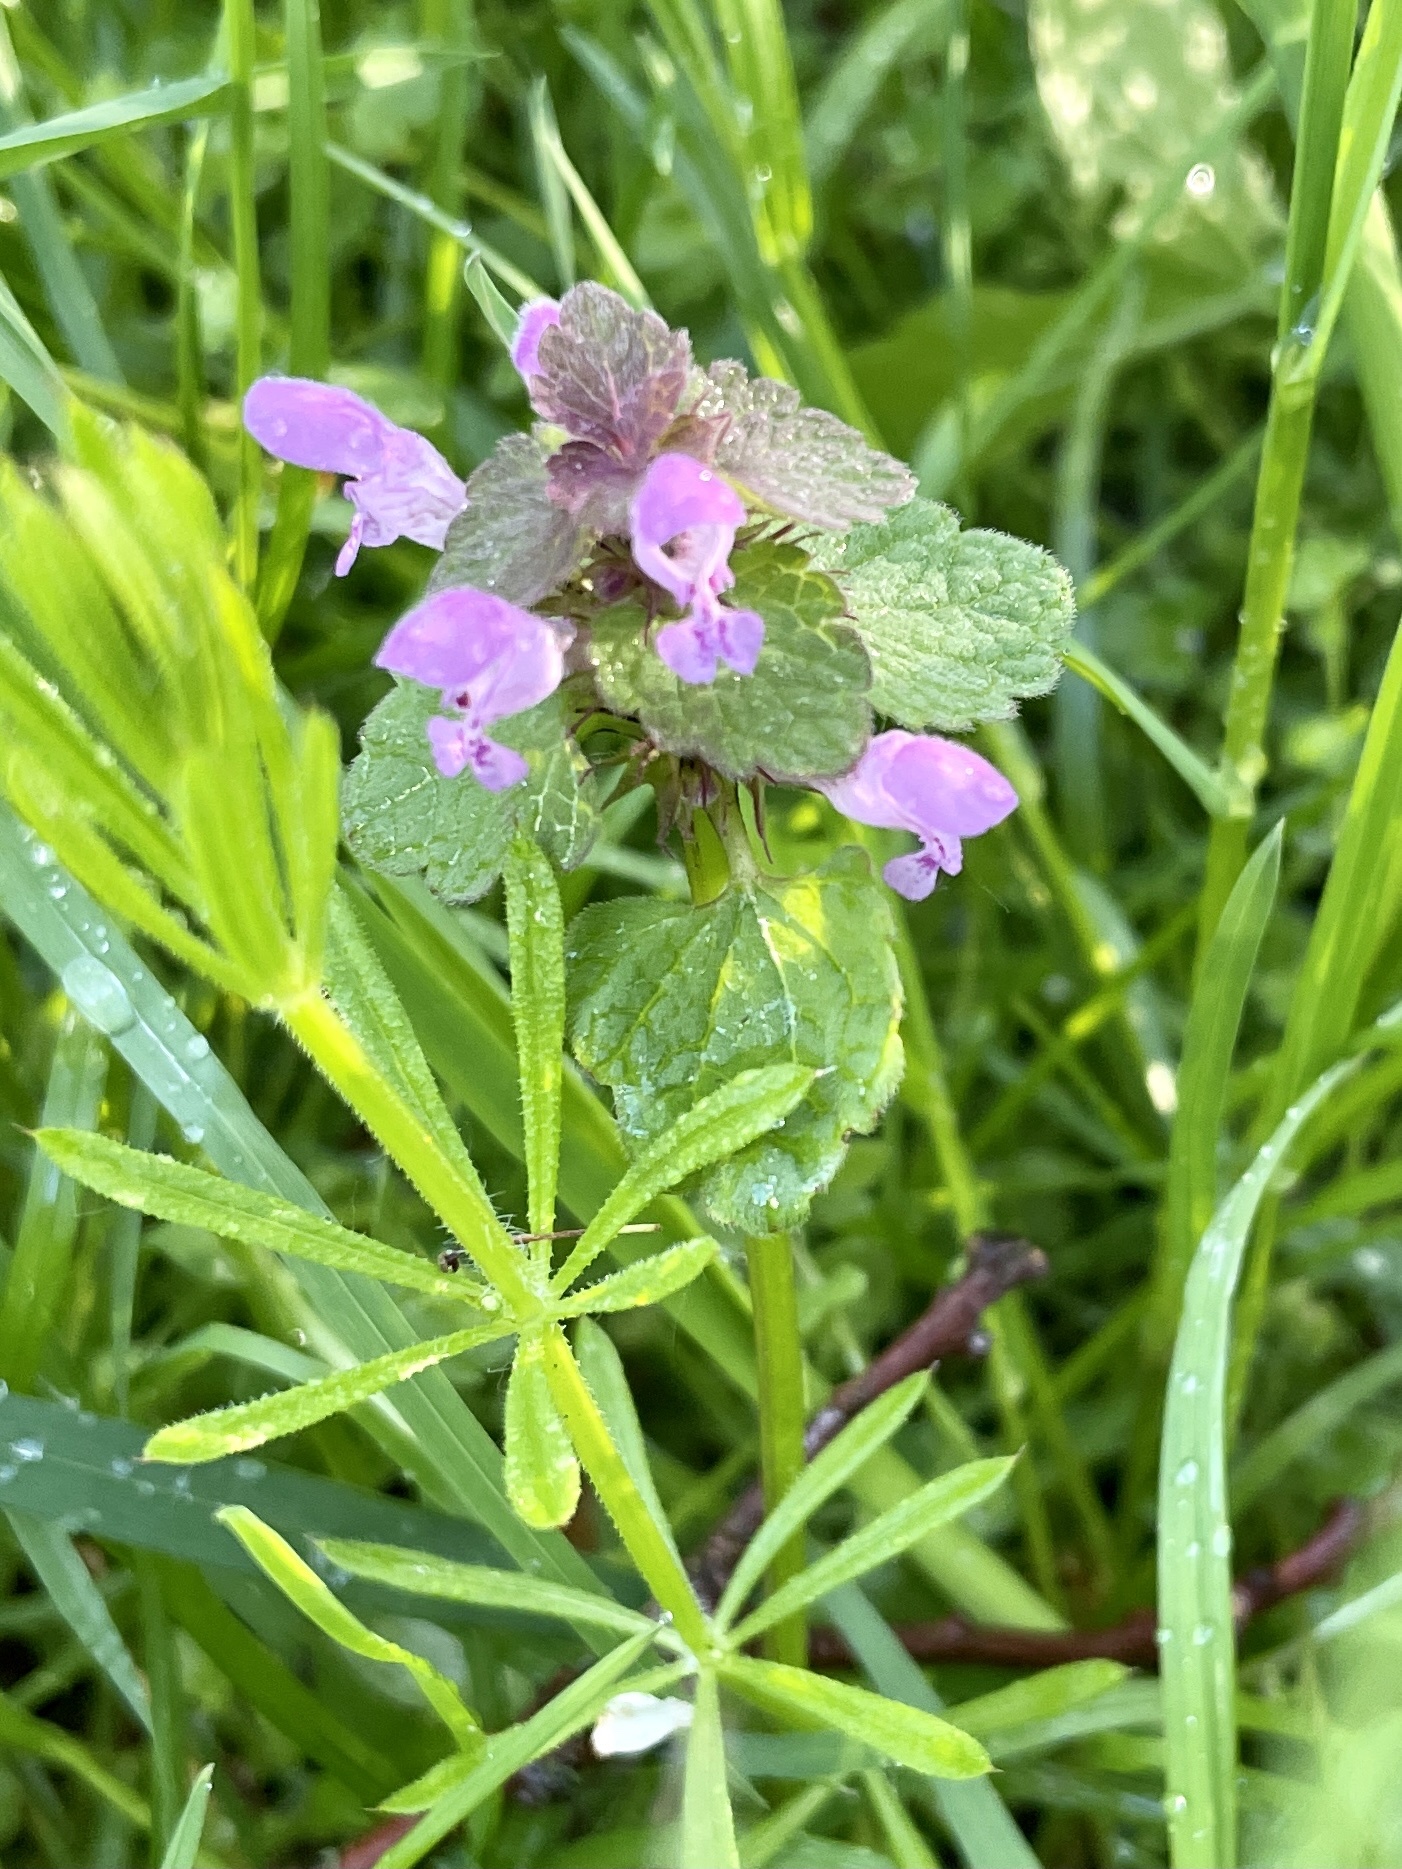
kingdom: Plantae
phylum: Tracheophyta
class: Magnoliopsida
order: Lamiales
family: Lamiaceae
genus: Lamium
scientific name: Lamium purpureum
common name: Red dead-nettle
